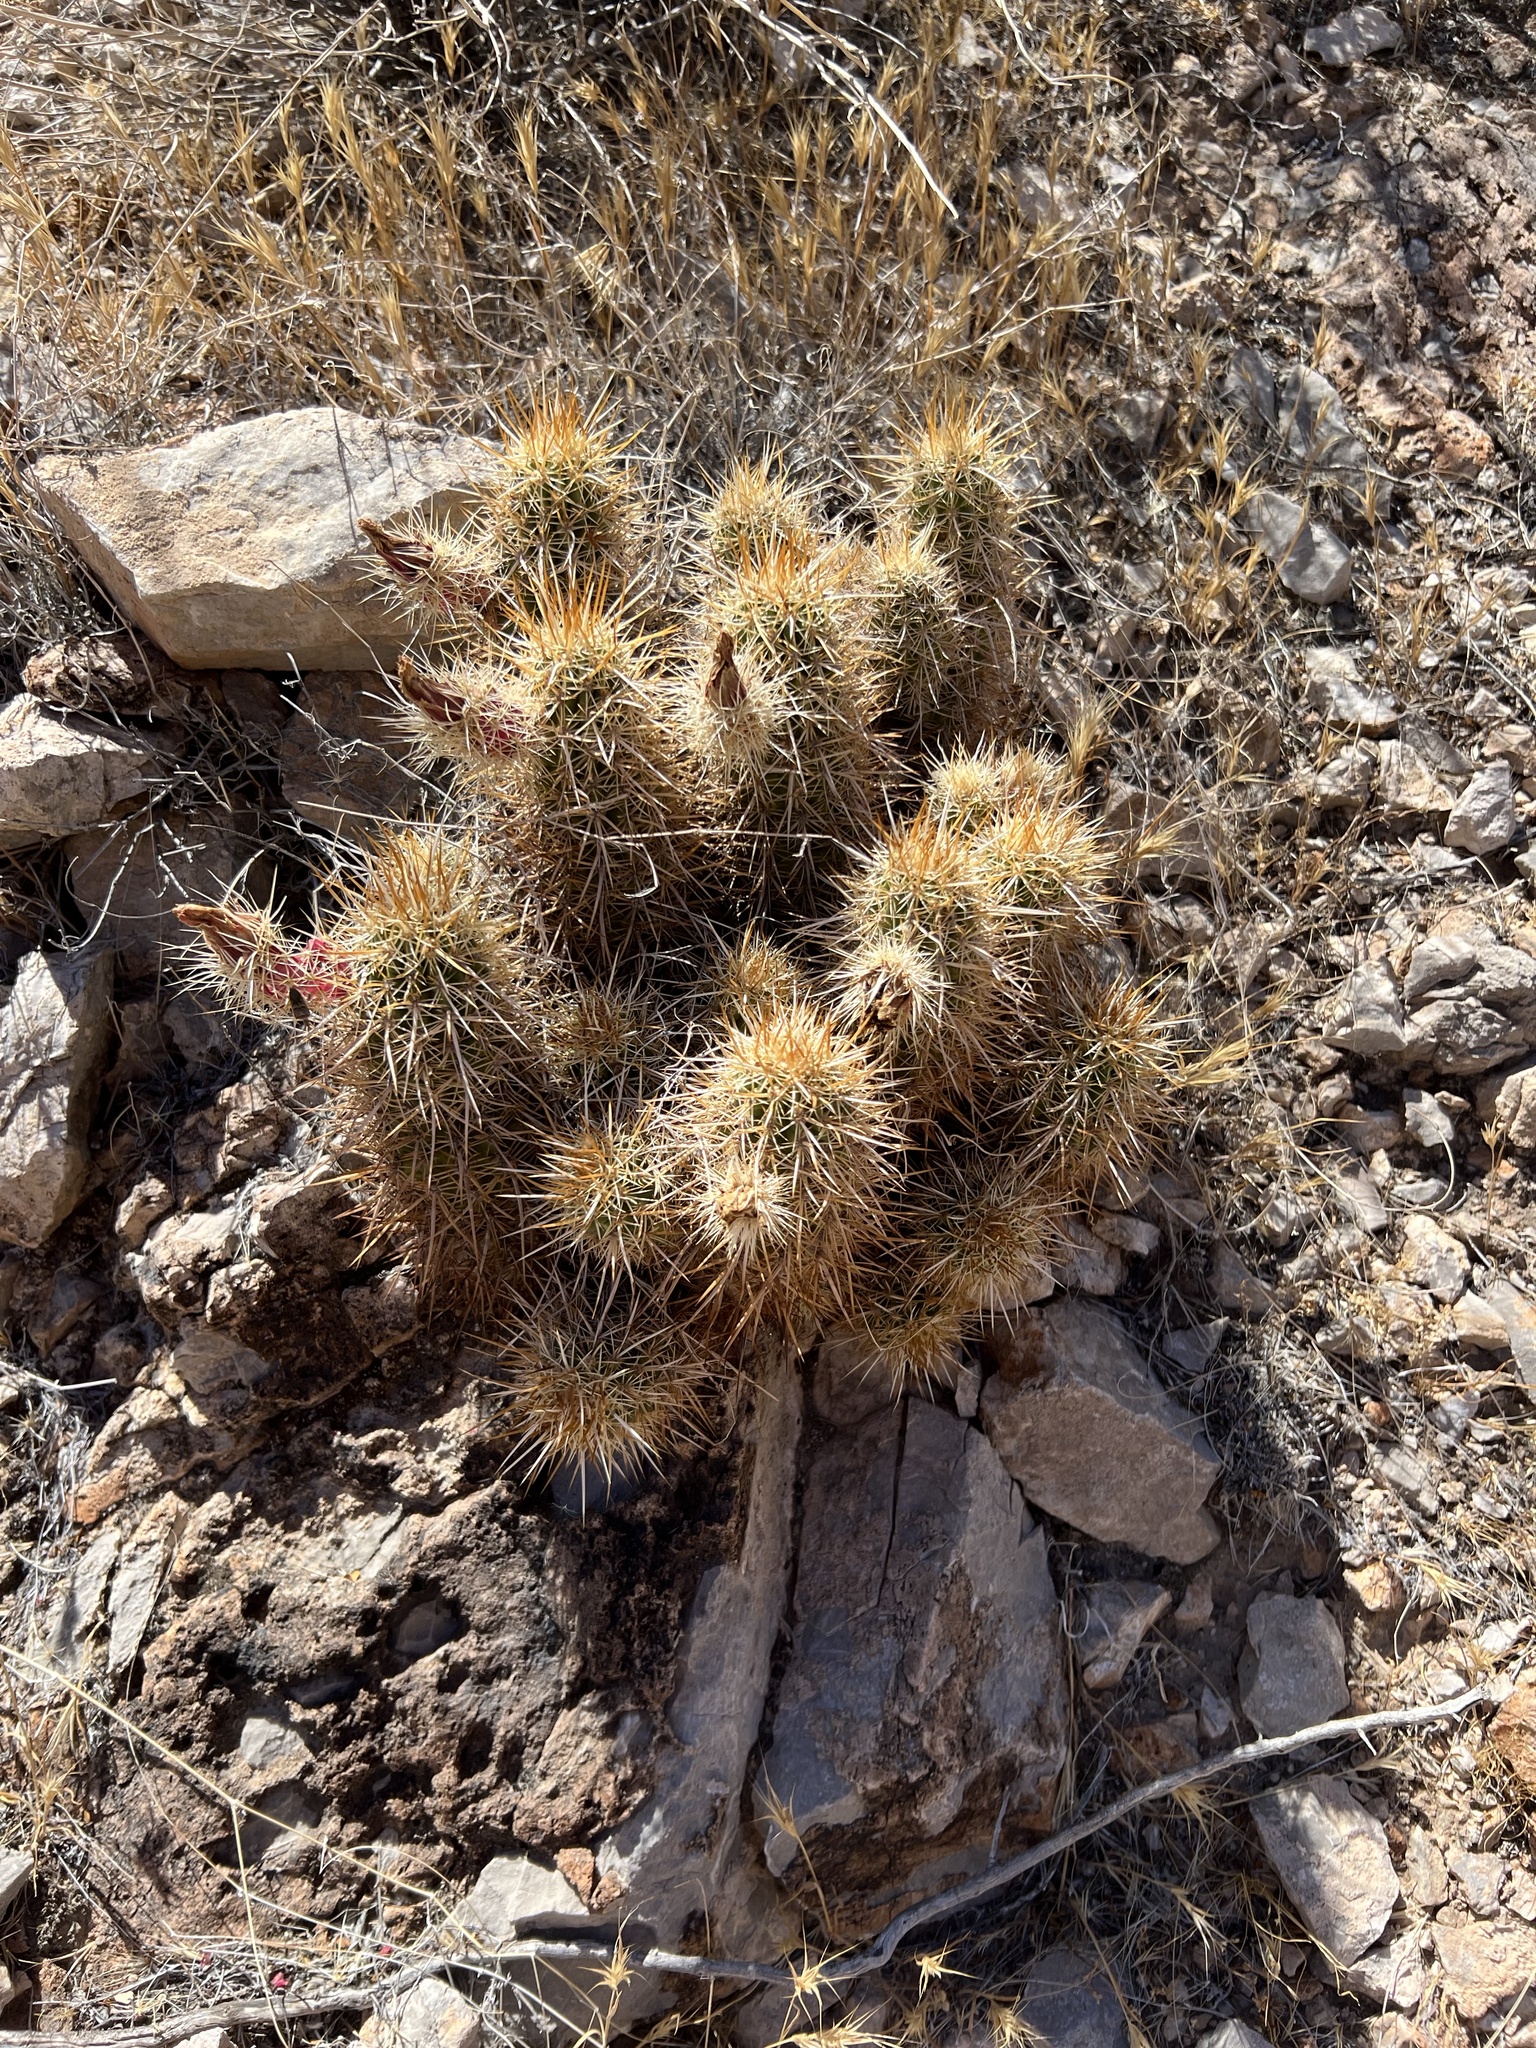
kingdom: Plantae
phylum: Tracheophyta
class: Magnoliopsida
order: Caryophyllales
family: Cactaceae
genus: Echinocereus
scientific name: Echinocereus engelmannii
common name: Engelmann's hedgehog cactus
